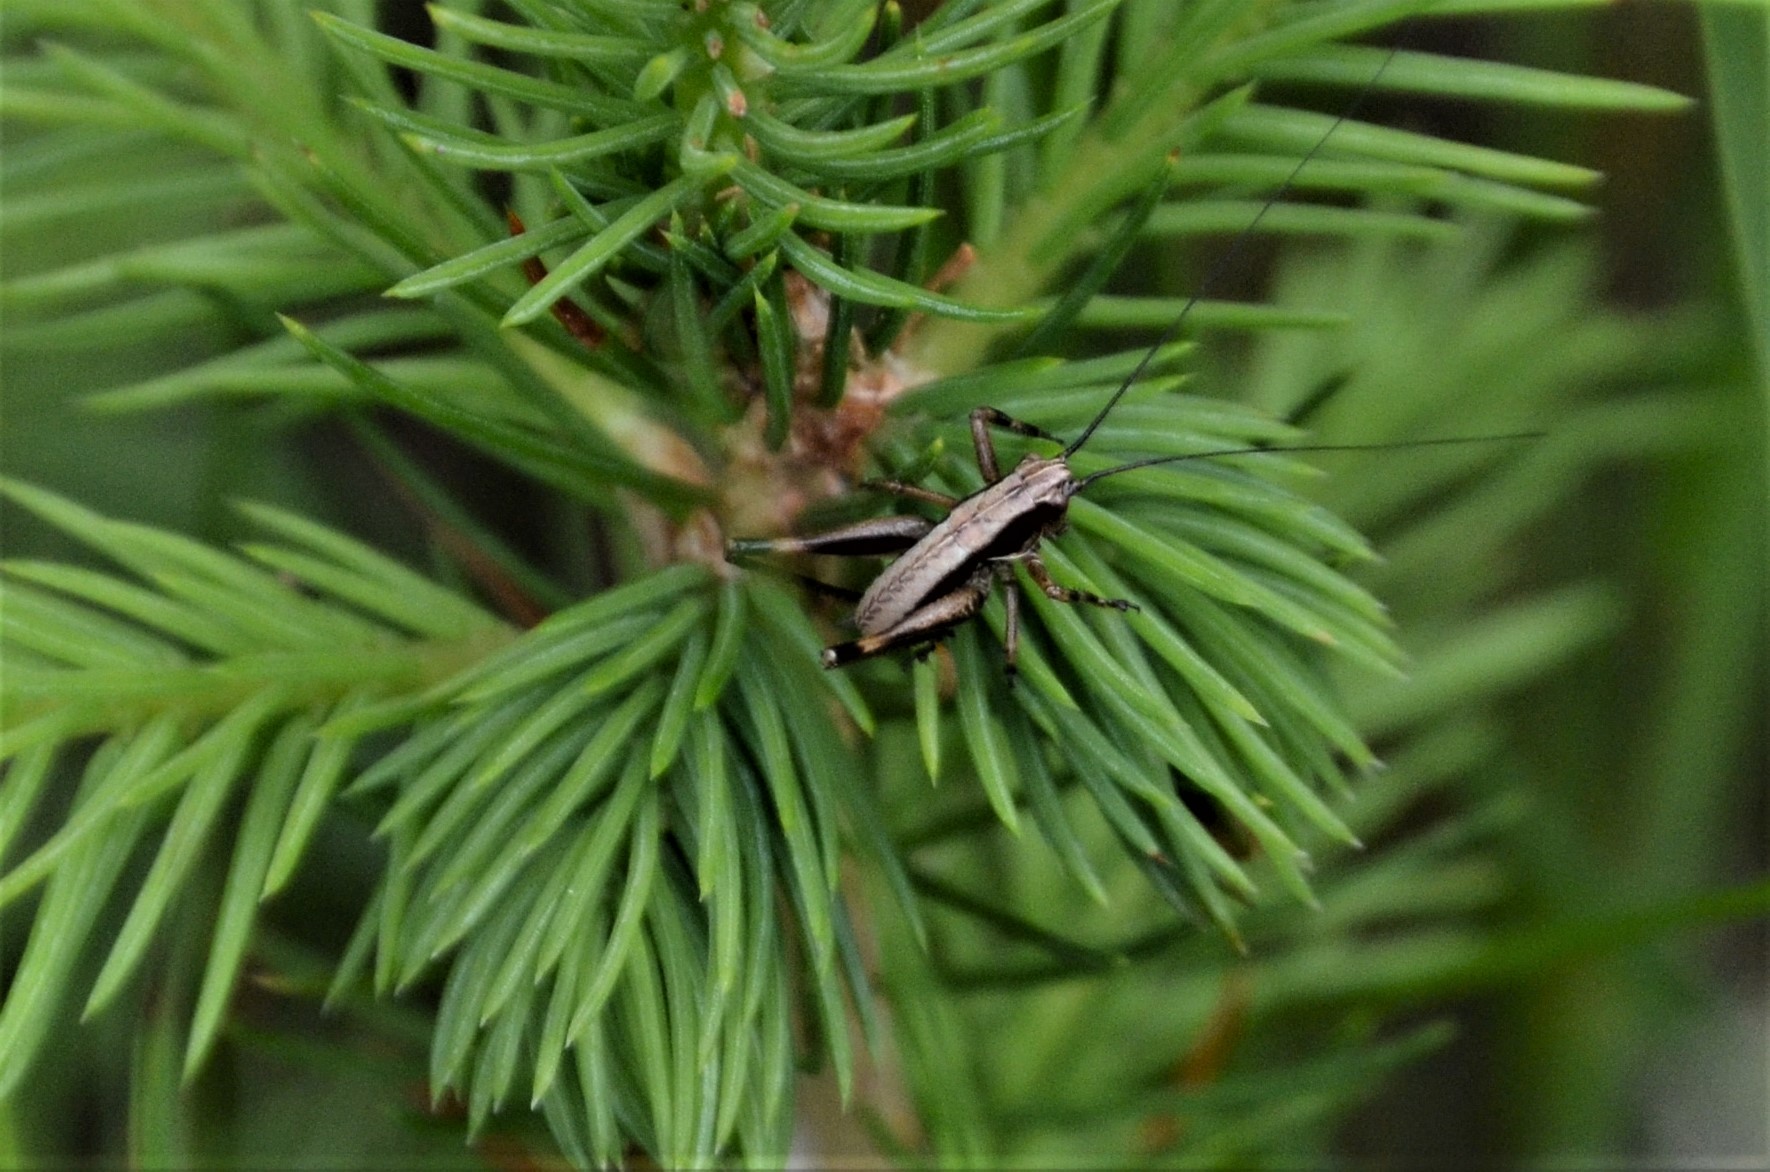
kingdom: Animalia
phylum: Arthropoda
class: Insecta
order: Orthoptera
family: Tettigoniidae
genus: Pholidoptera
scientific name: Pholidoptera griseoaptera
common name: Dark bush-cricket
